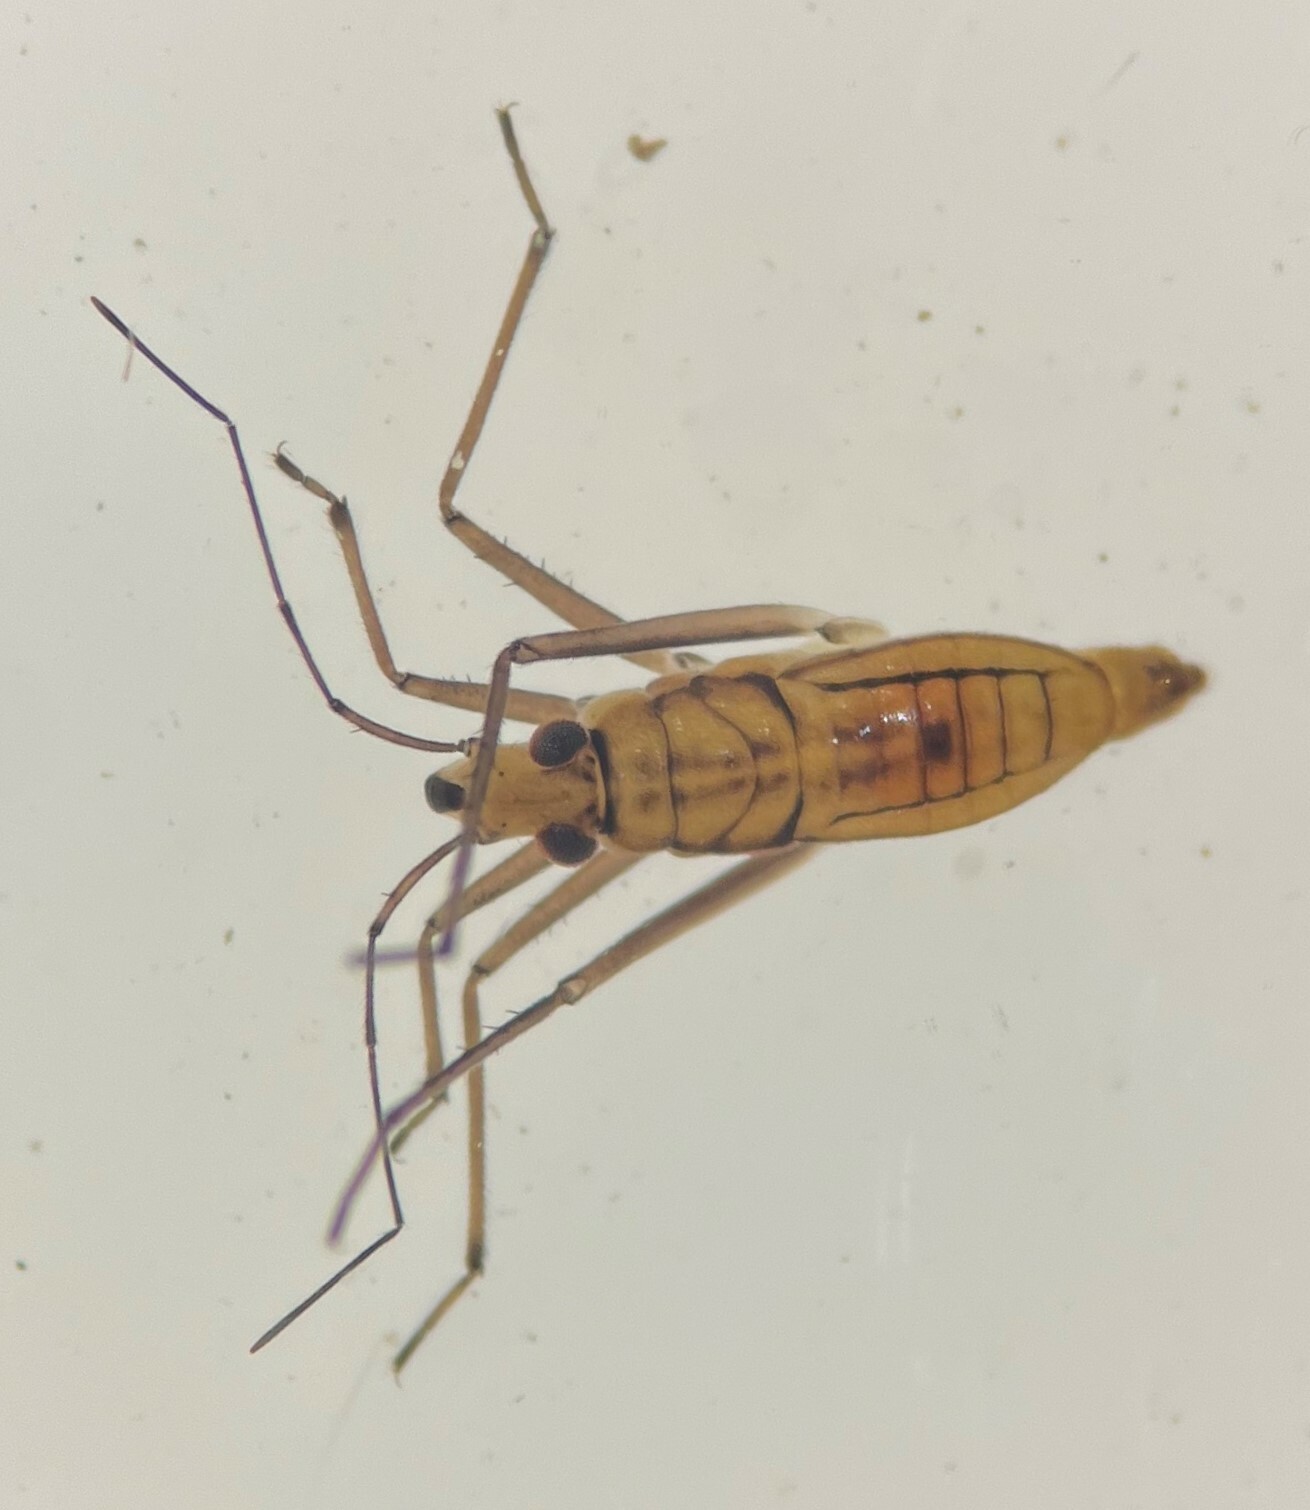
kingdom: Animalia
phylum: Arthropoda
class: Insecta
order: Hemiptera
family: Mesoveliidae
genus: Mesovelia
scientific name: Mesovelia mulsanti
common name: Water treaders
